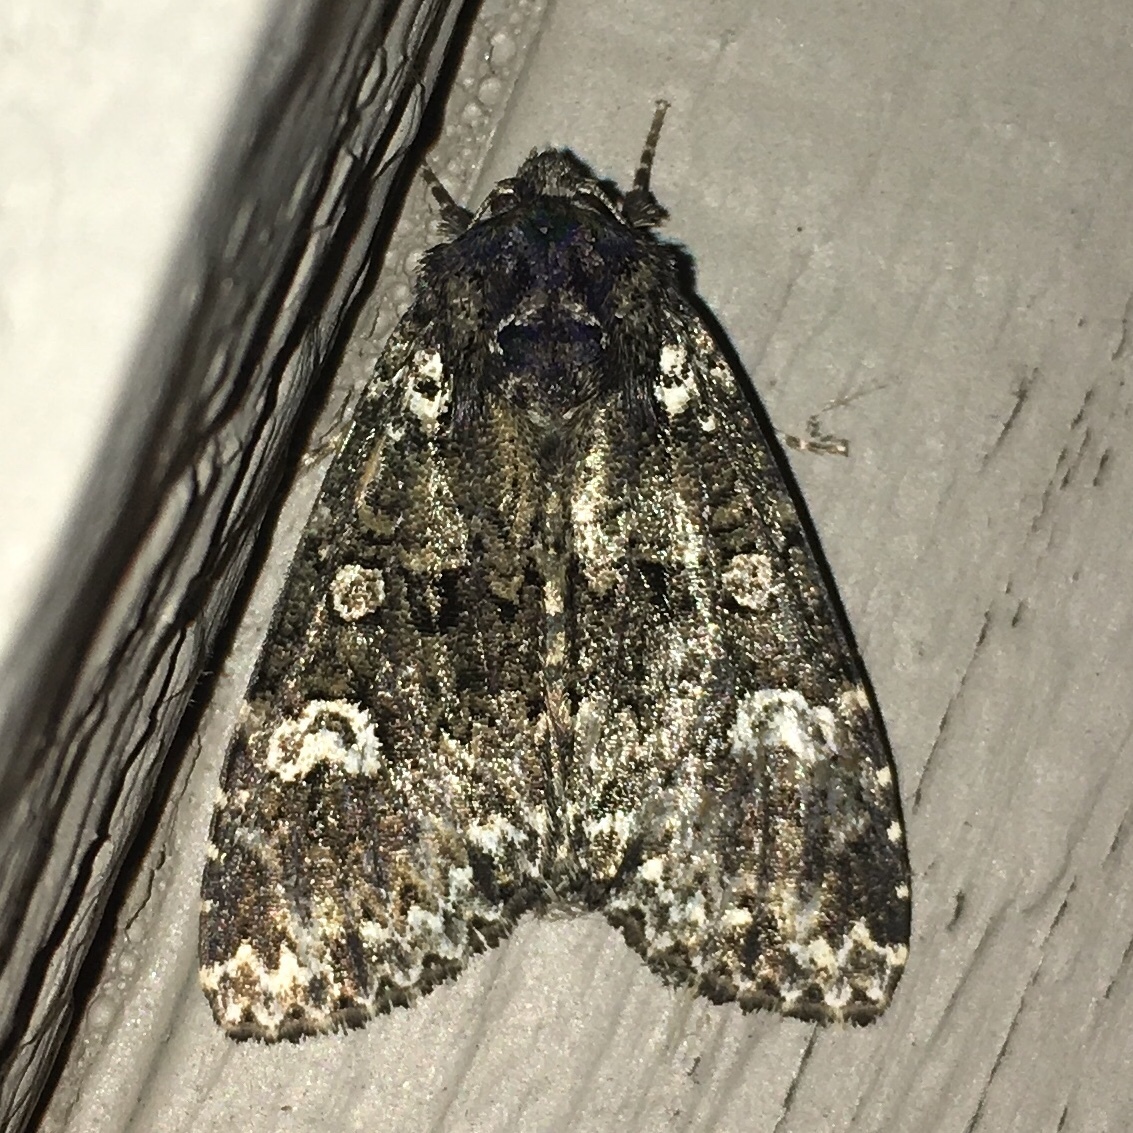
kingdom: Animalia
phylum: Arthropoda
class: Insecta
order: Lepidoptera
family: Noctuidae
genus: Melanchra
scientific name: Melanchra adjuncta
